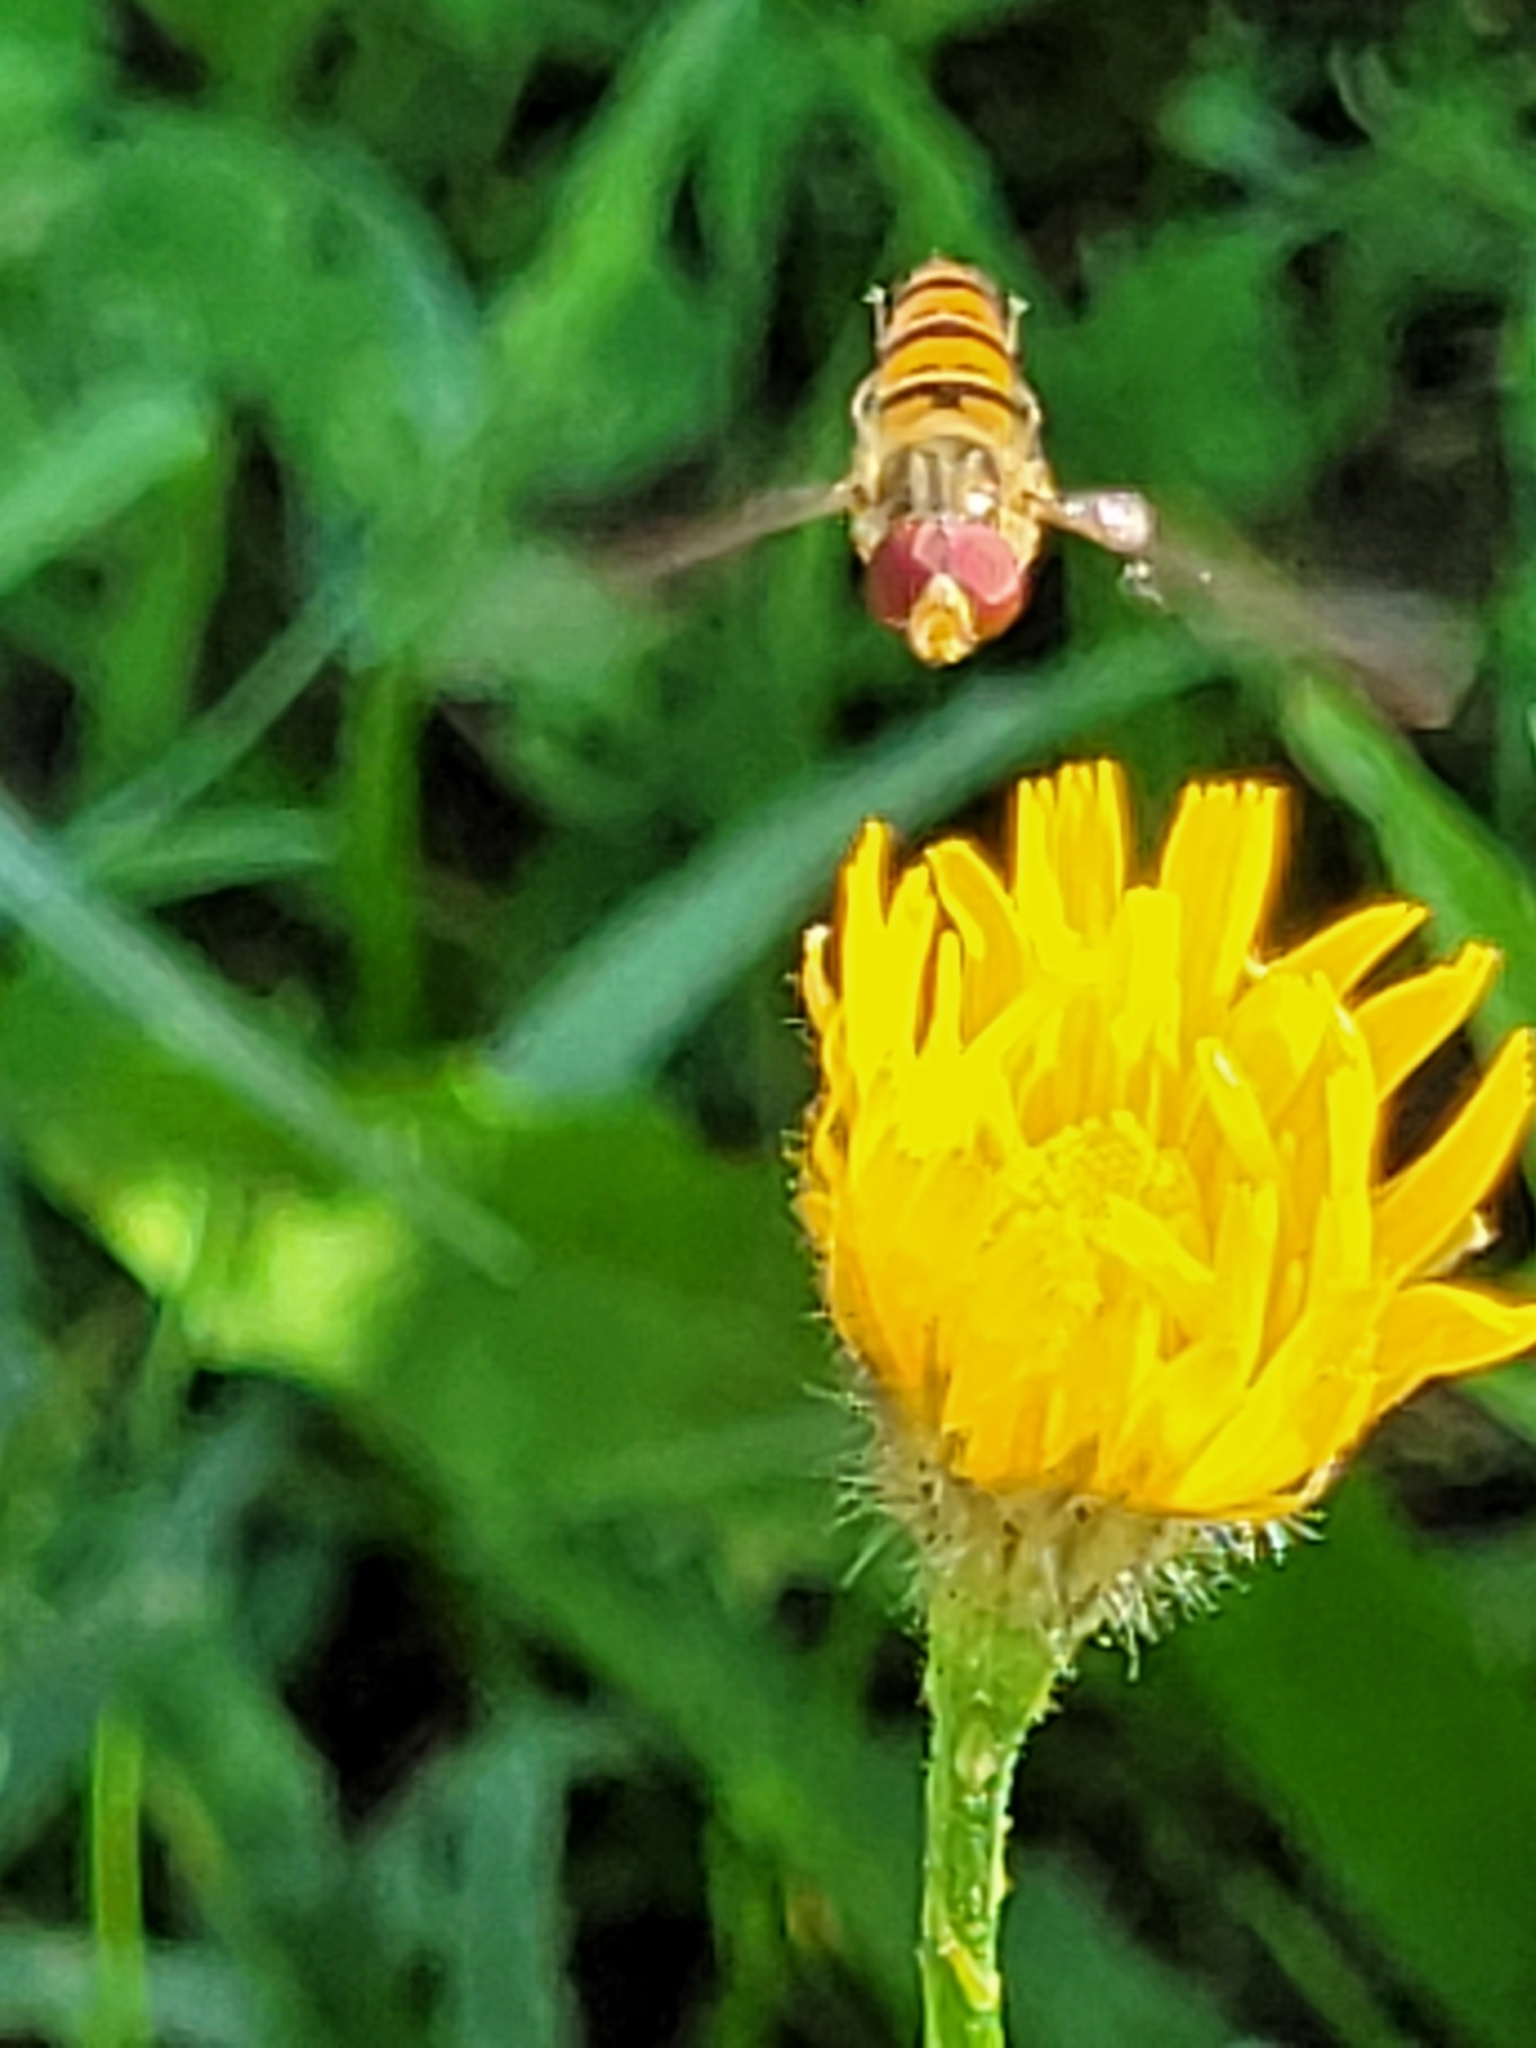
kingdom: Animalia
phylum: Arthropoda
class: Insecta
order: Diptera
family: Syrphidae
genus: Episyrphus
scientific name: Episyrphus balteatus
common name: Marmalade hoverfly
